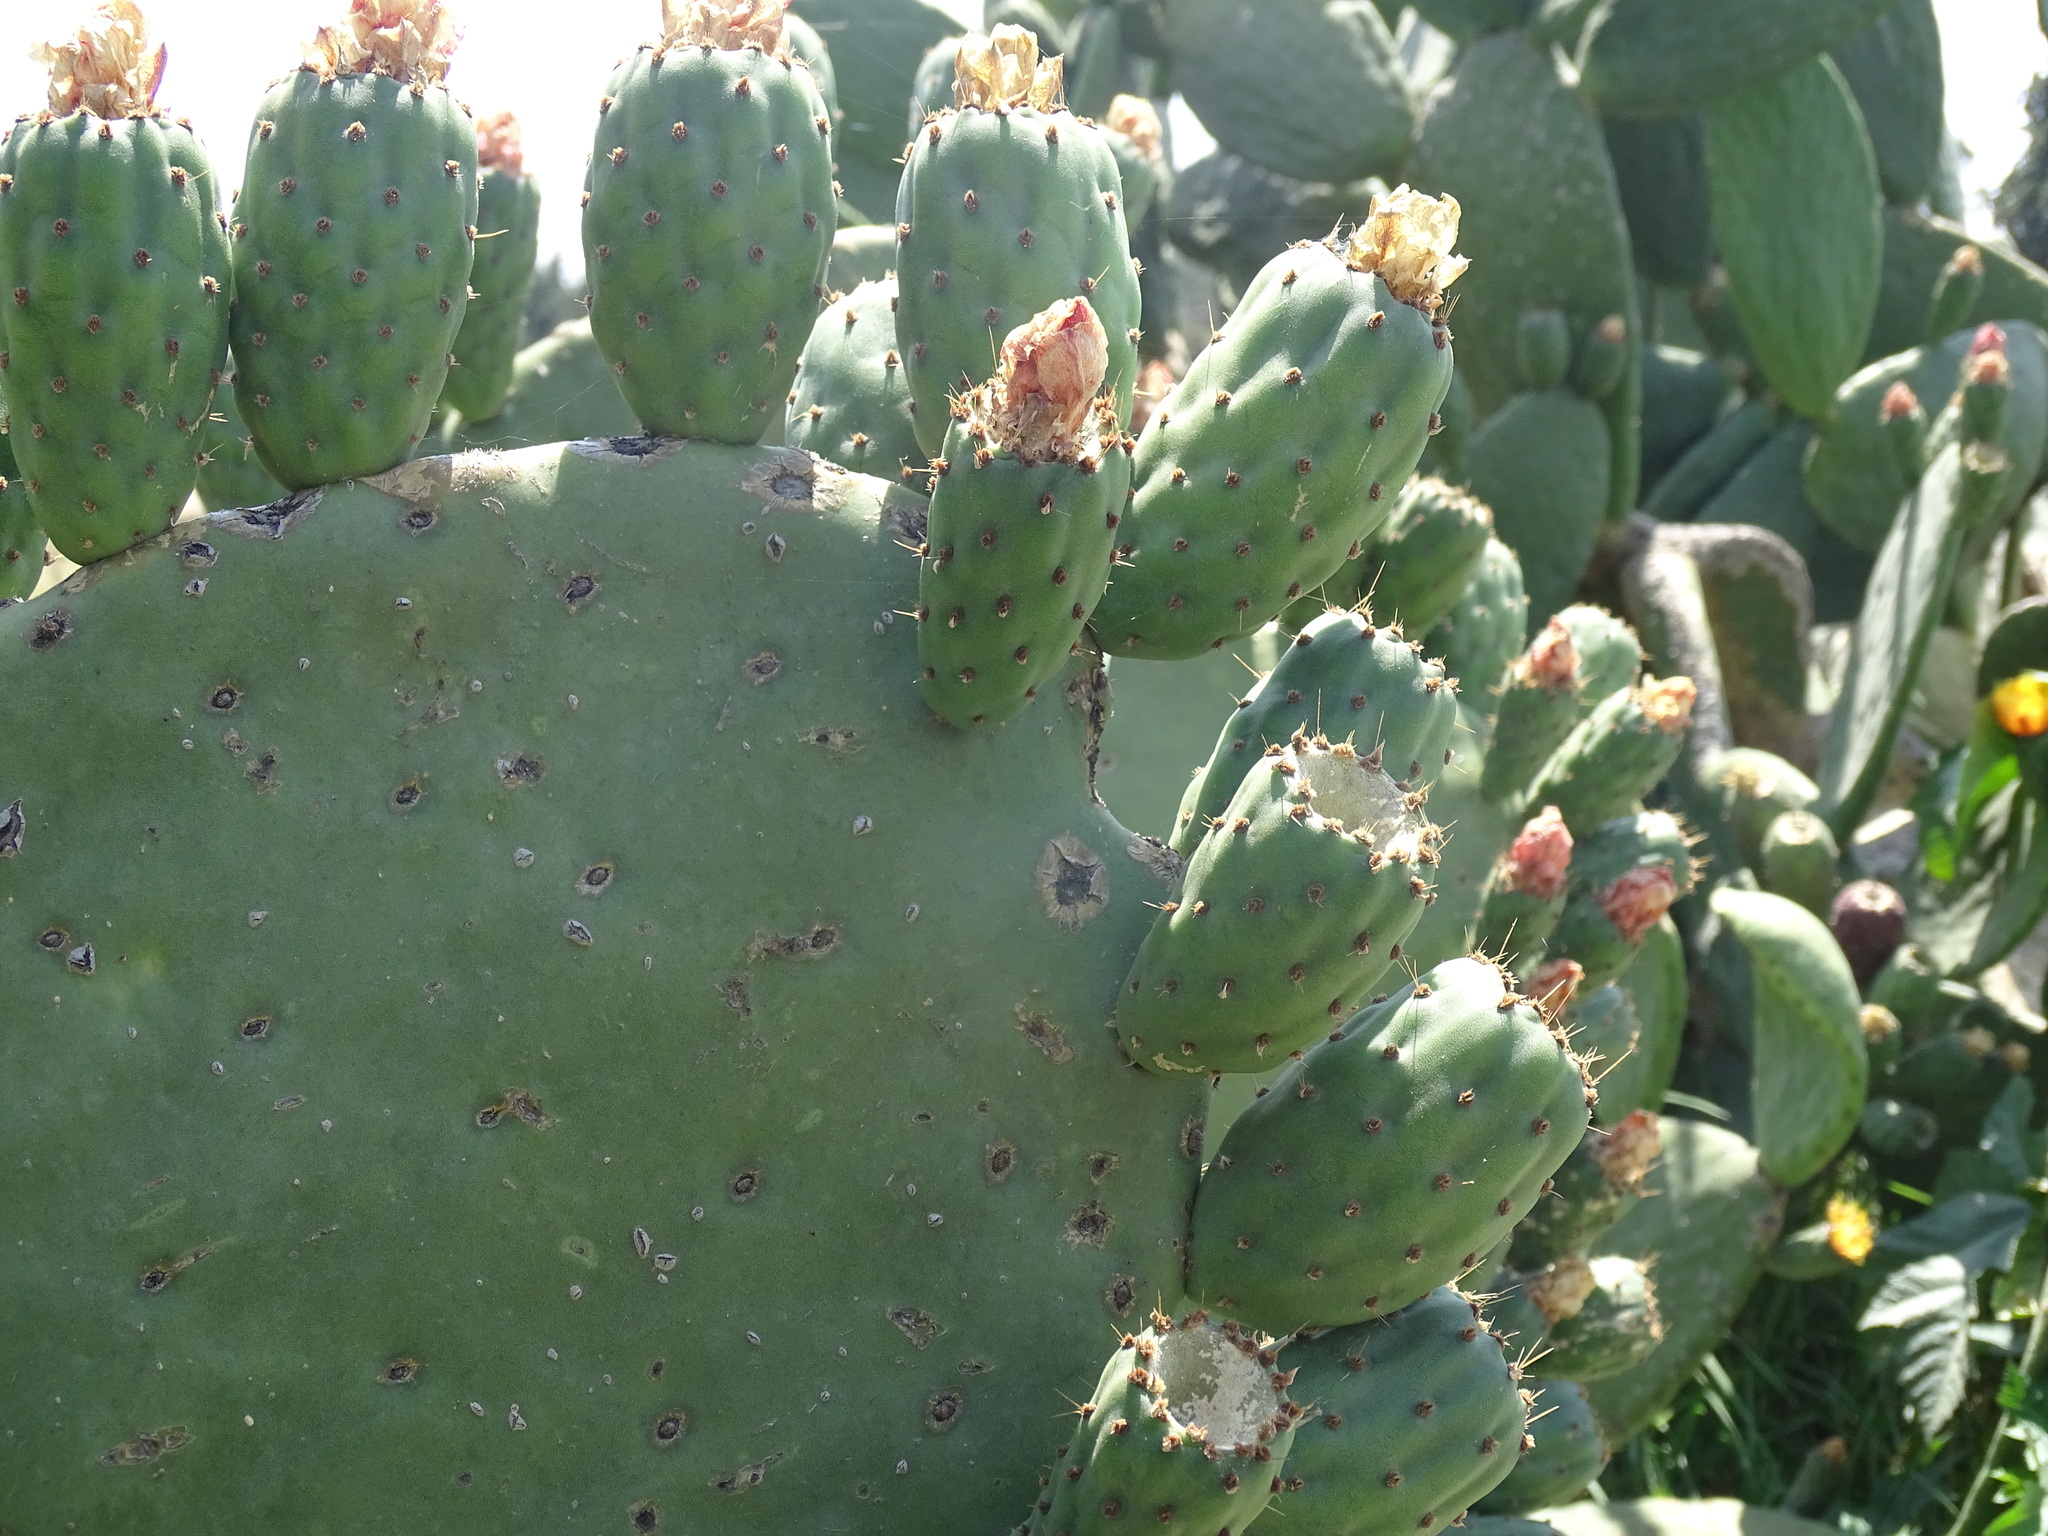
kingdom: Plantae
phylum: Tracheophyta
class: Magnoliopsida
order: Caryophyllales
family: Cactaceae
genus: Opuntia
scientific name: Opuntia ficus-indica
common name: Barbary fig
